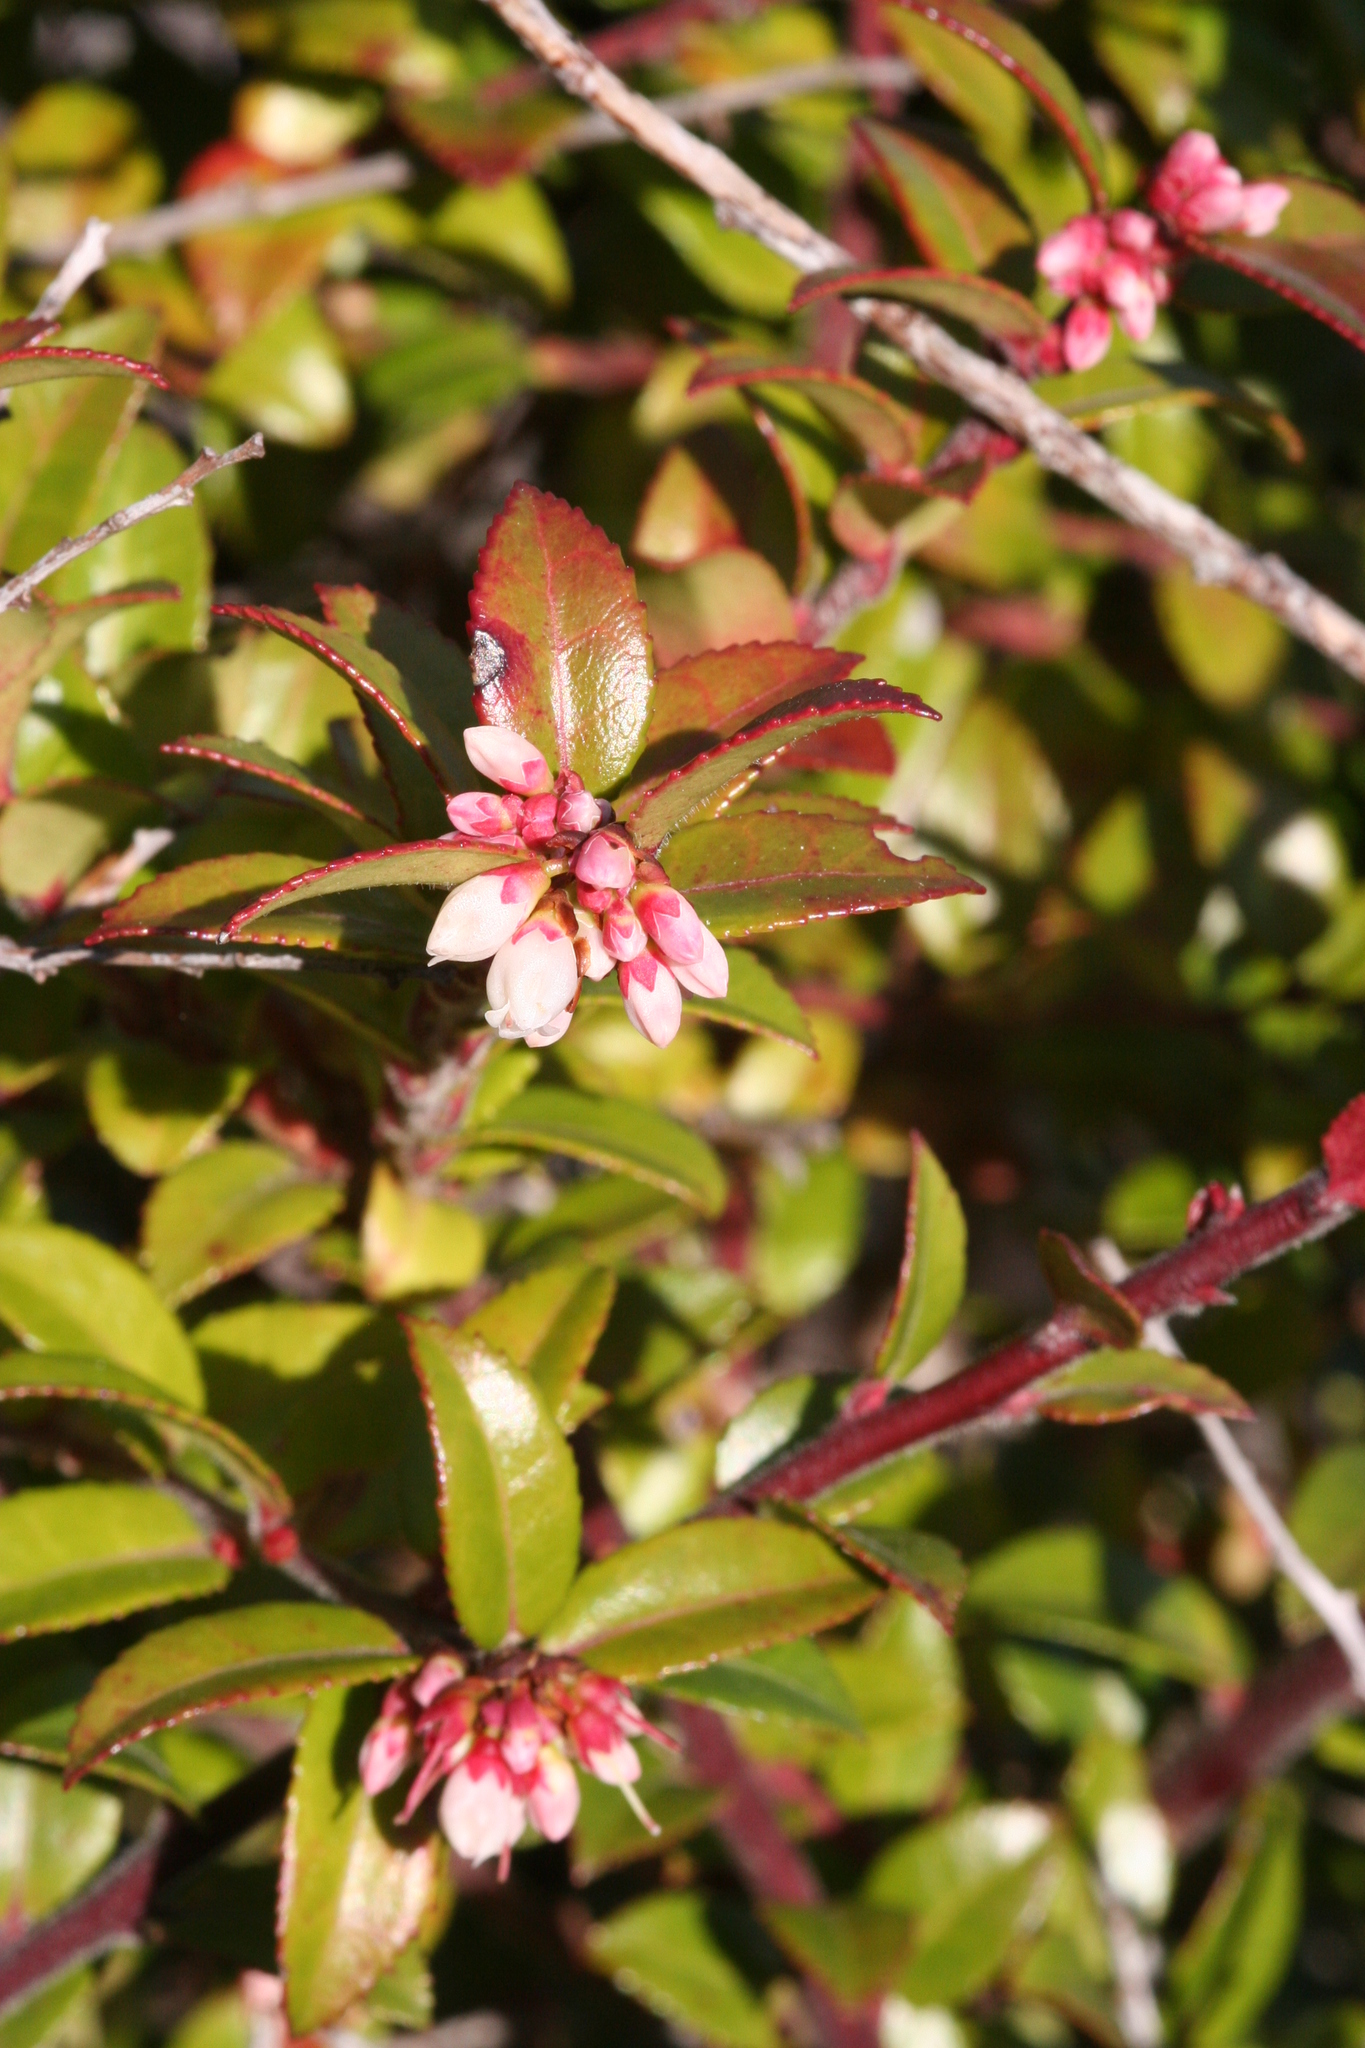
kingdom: Plantae
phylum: Tracheophyta
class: Magnoliopsida
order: Ericales
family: Ericaceae
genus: Vaccinium
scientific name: Vaccinium ovatum
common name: California-huckleberry
